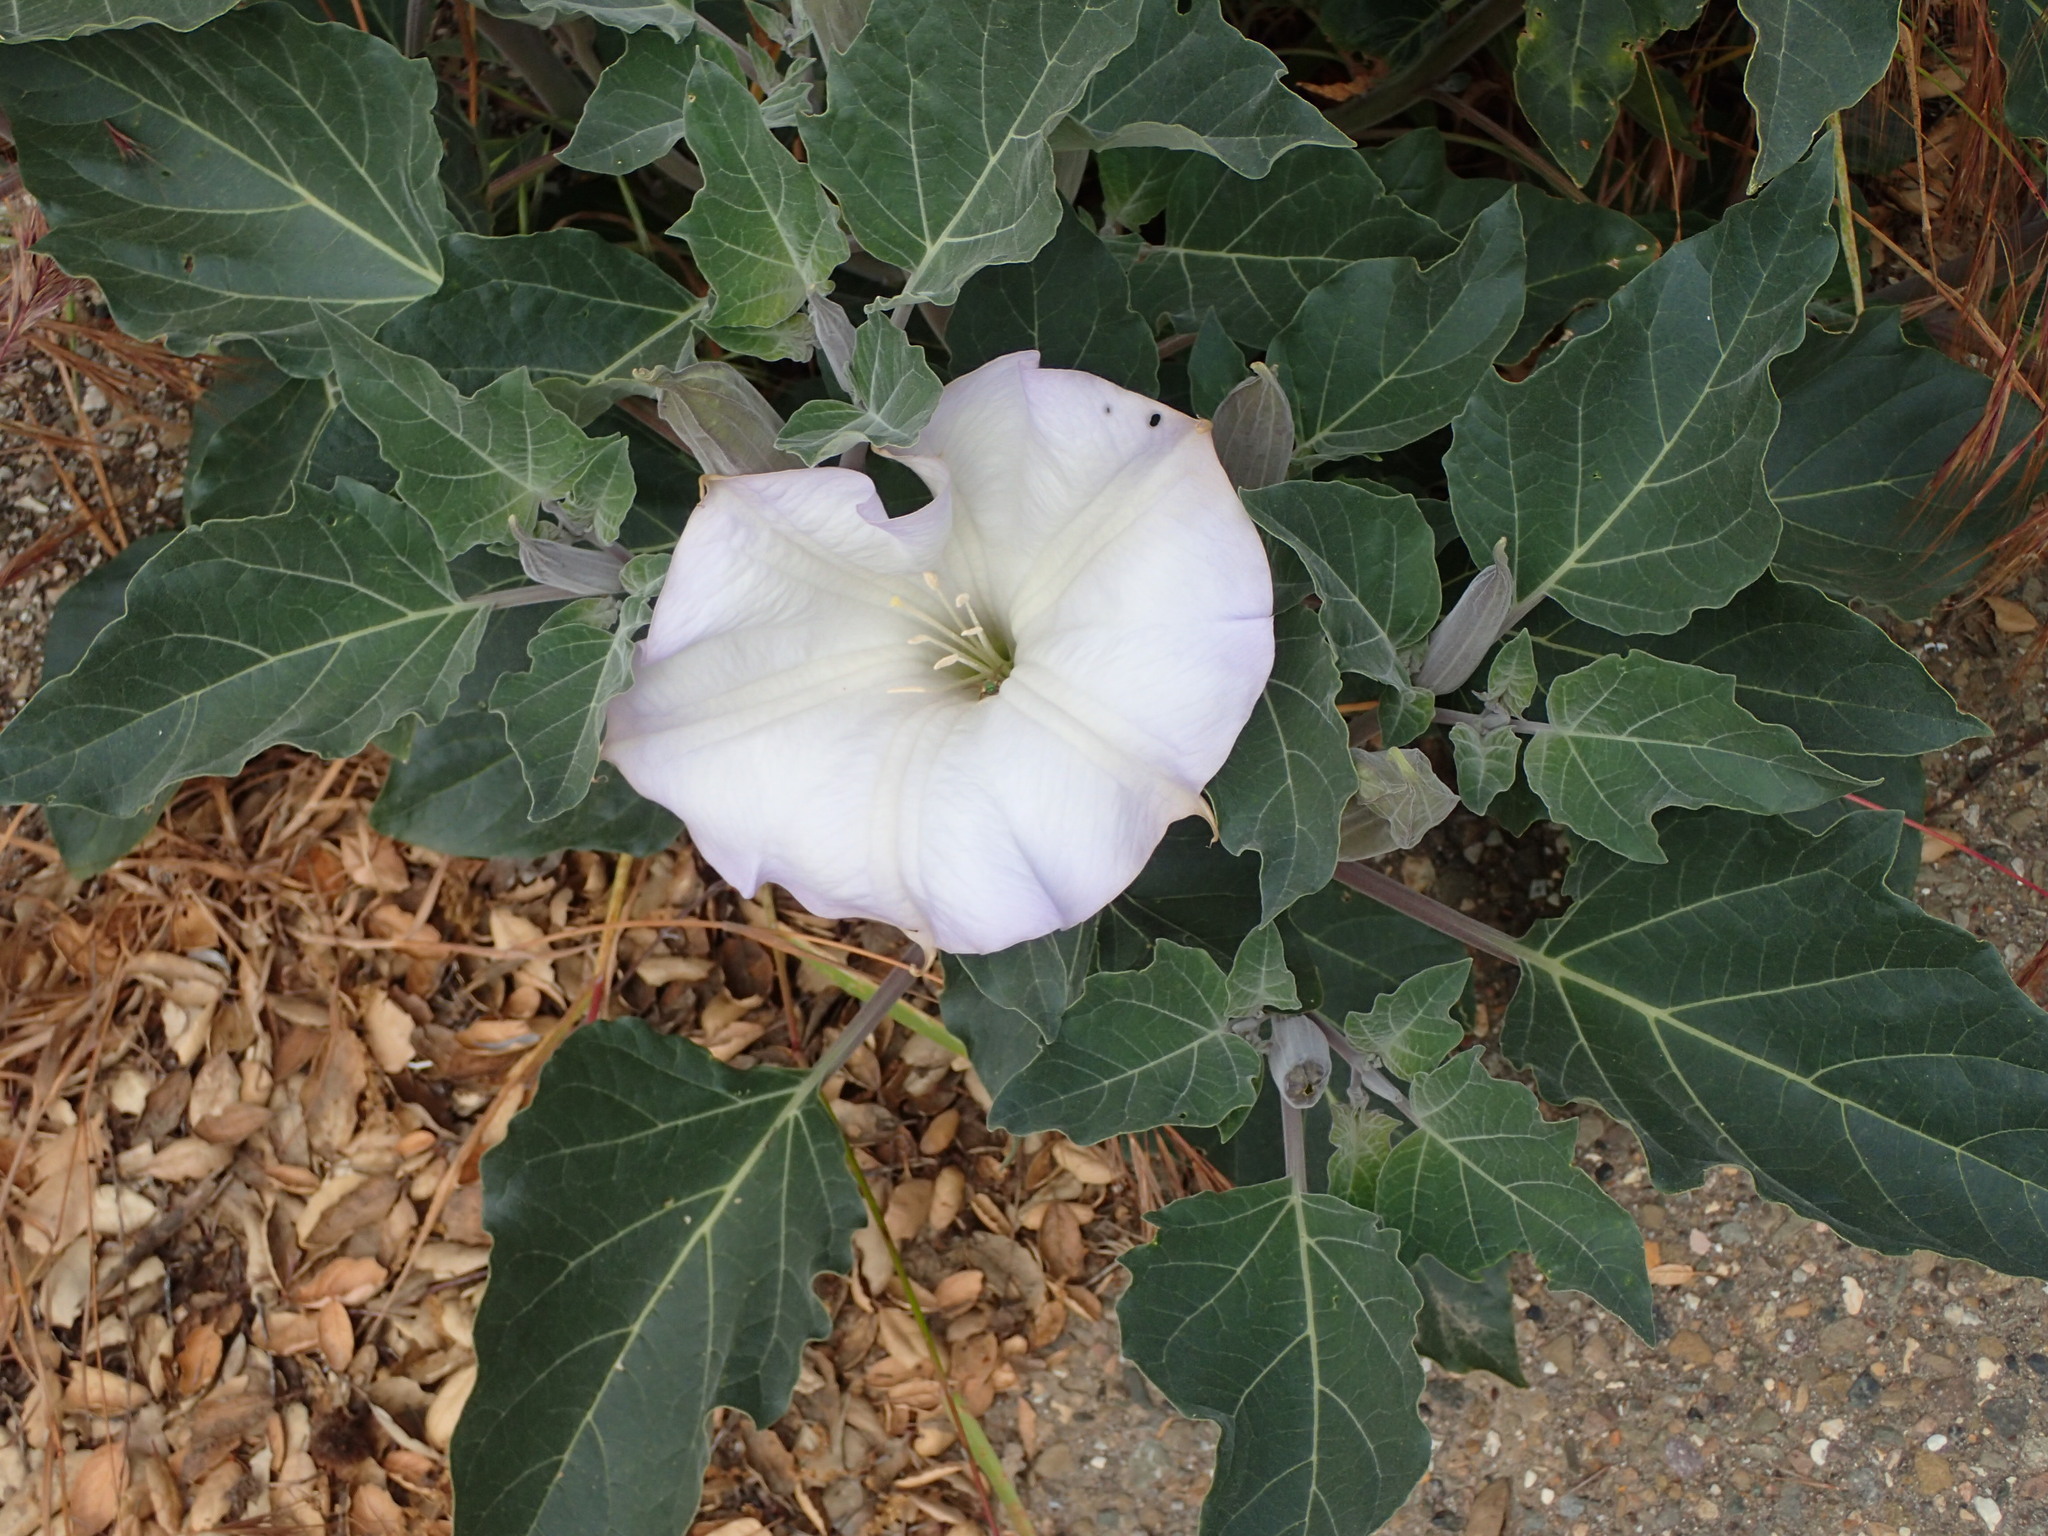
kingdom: Plantae
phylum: Tracheophyta
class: Magnoliopsida
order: Solanales
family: Solanaceae
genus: Datura
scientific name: Datura wrightii
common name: Sacred thorn-apple
